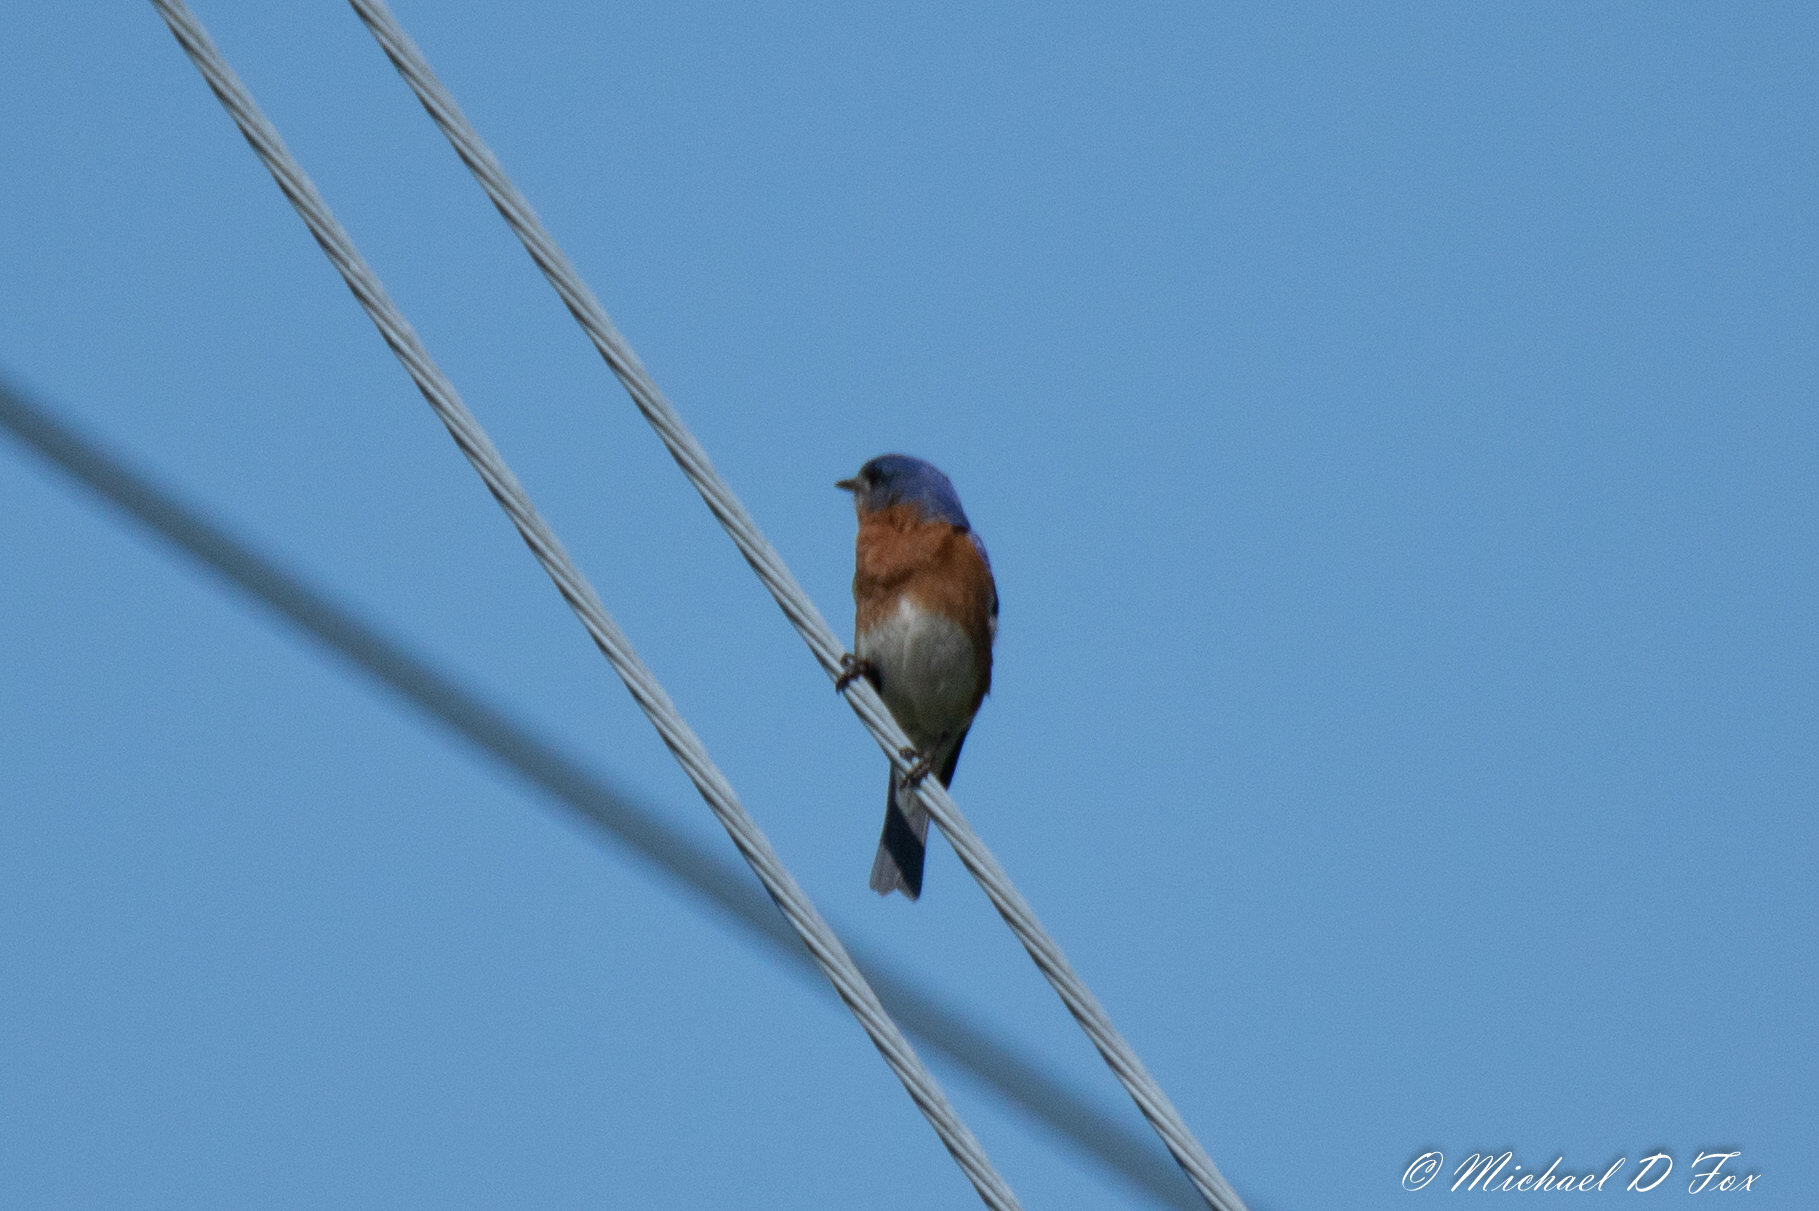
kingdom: Animalia
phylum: Chordata
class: Aves
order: Passeriformes
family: Turdidae
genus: Sialia
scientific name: Sialia sialis
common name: Eastern bluebird
